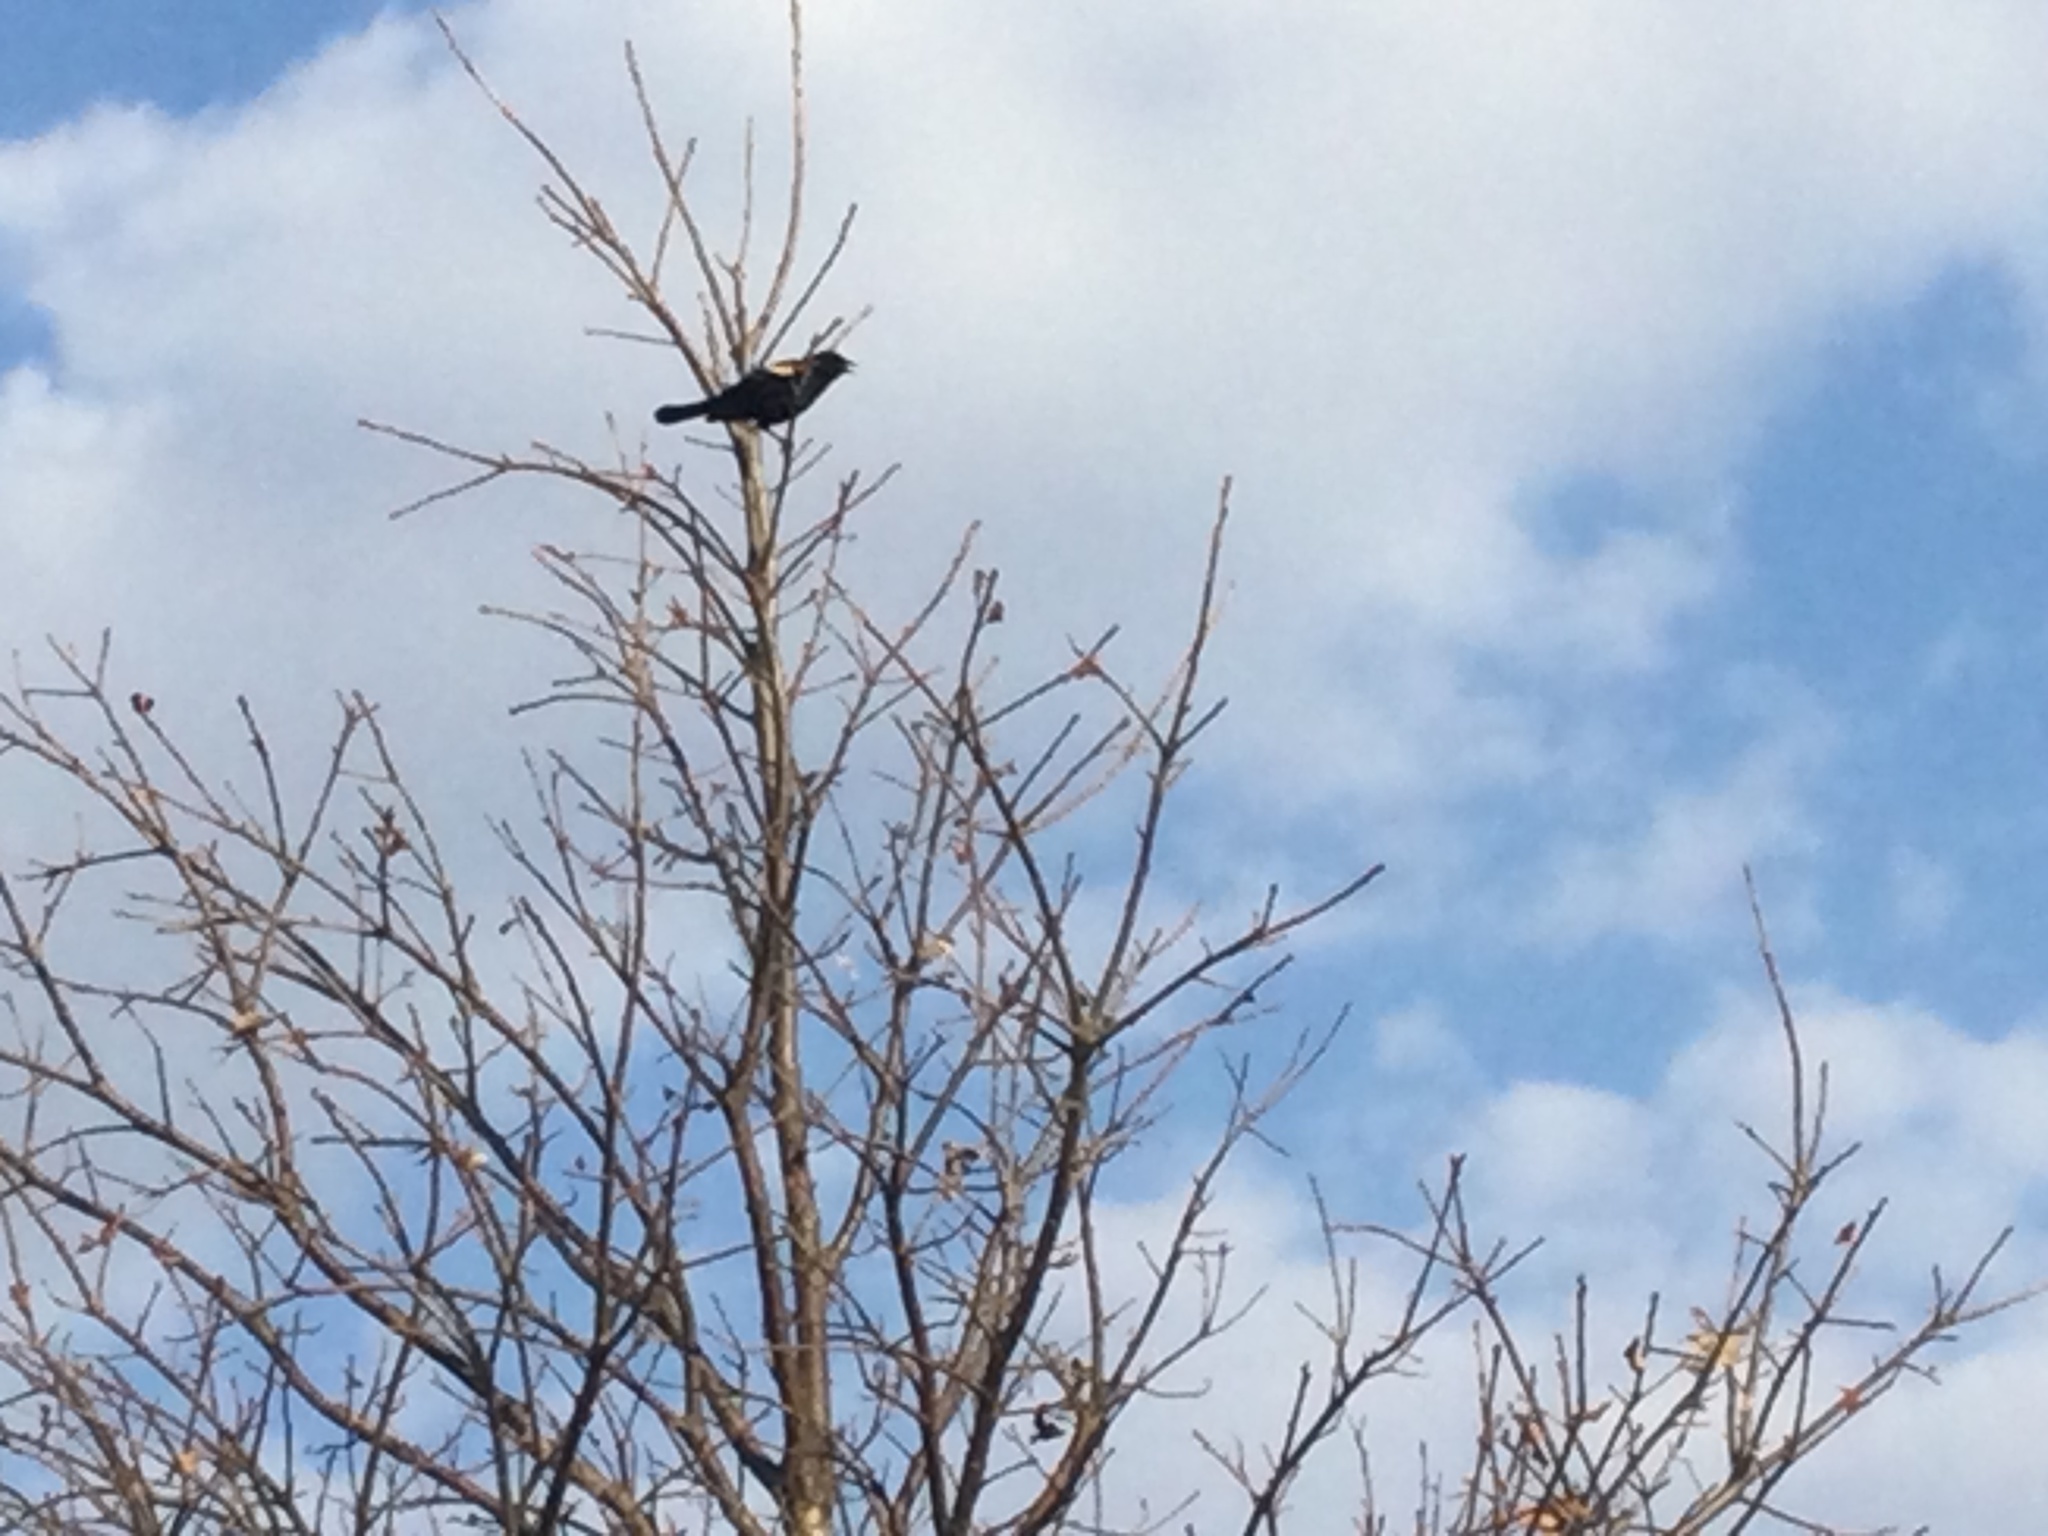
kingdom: Animalia
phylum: Chordata
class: Aves
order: Passeriformes
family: Icteridae
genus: Agelaius
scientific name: Agelaius phoeniceus
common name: Red-winged blackbird
